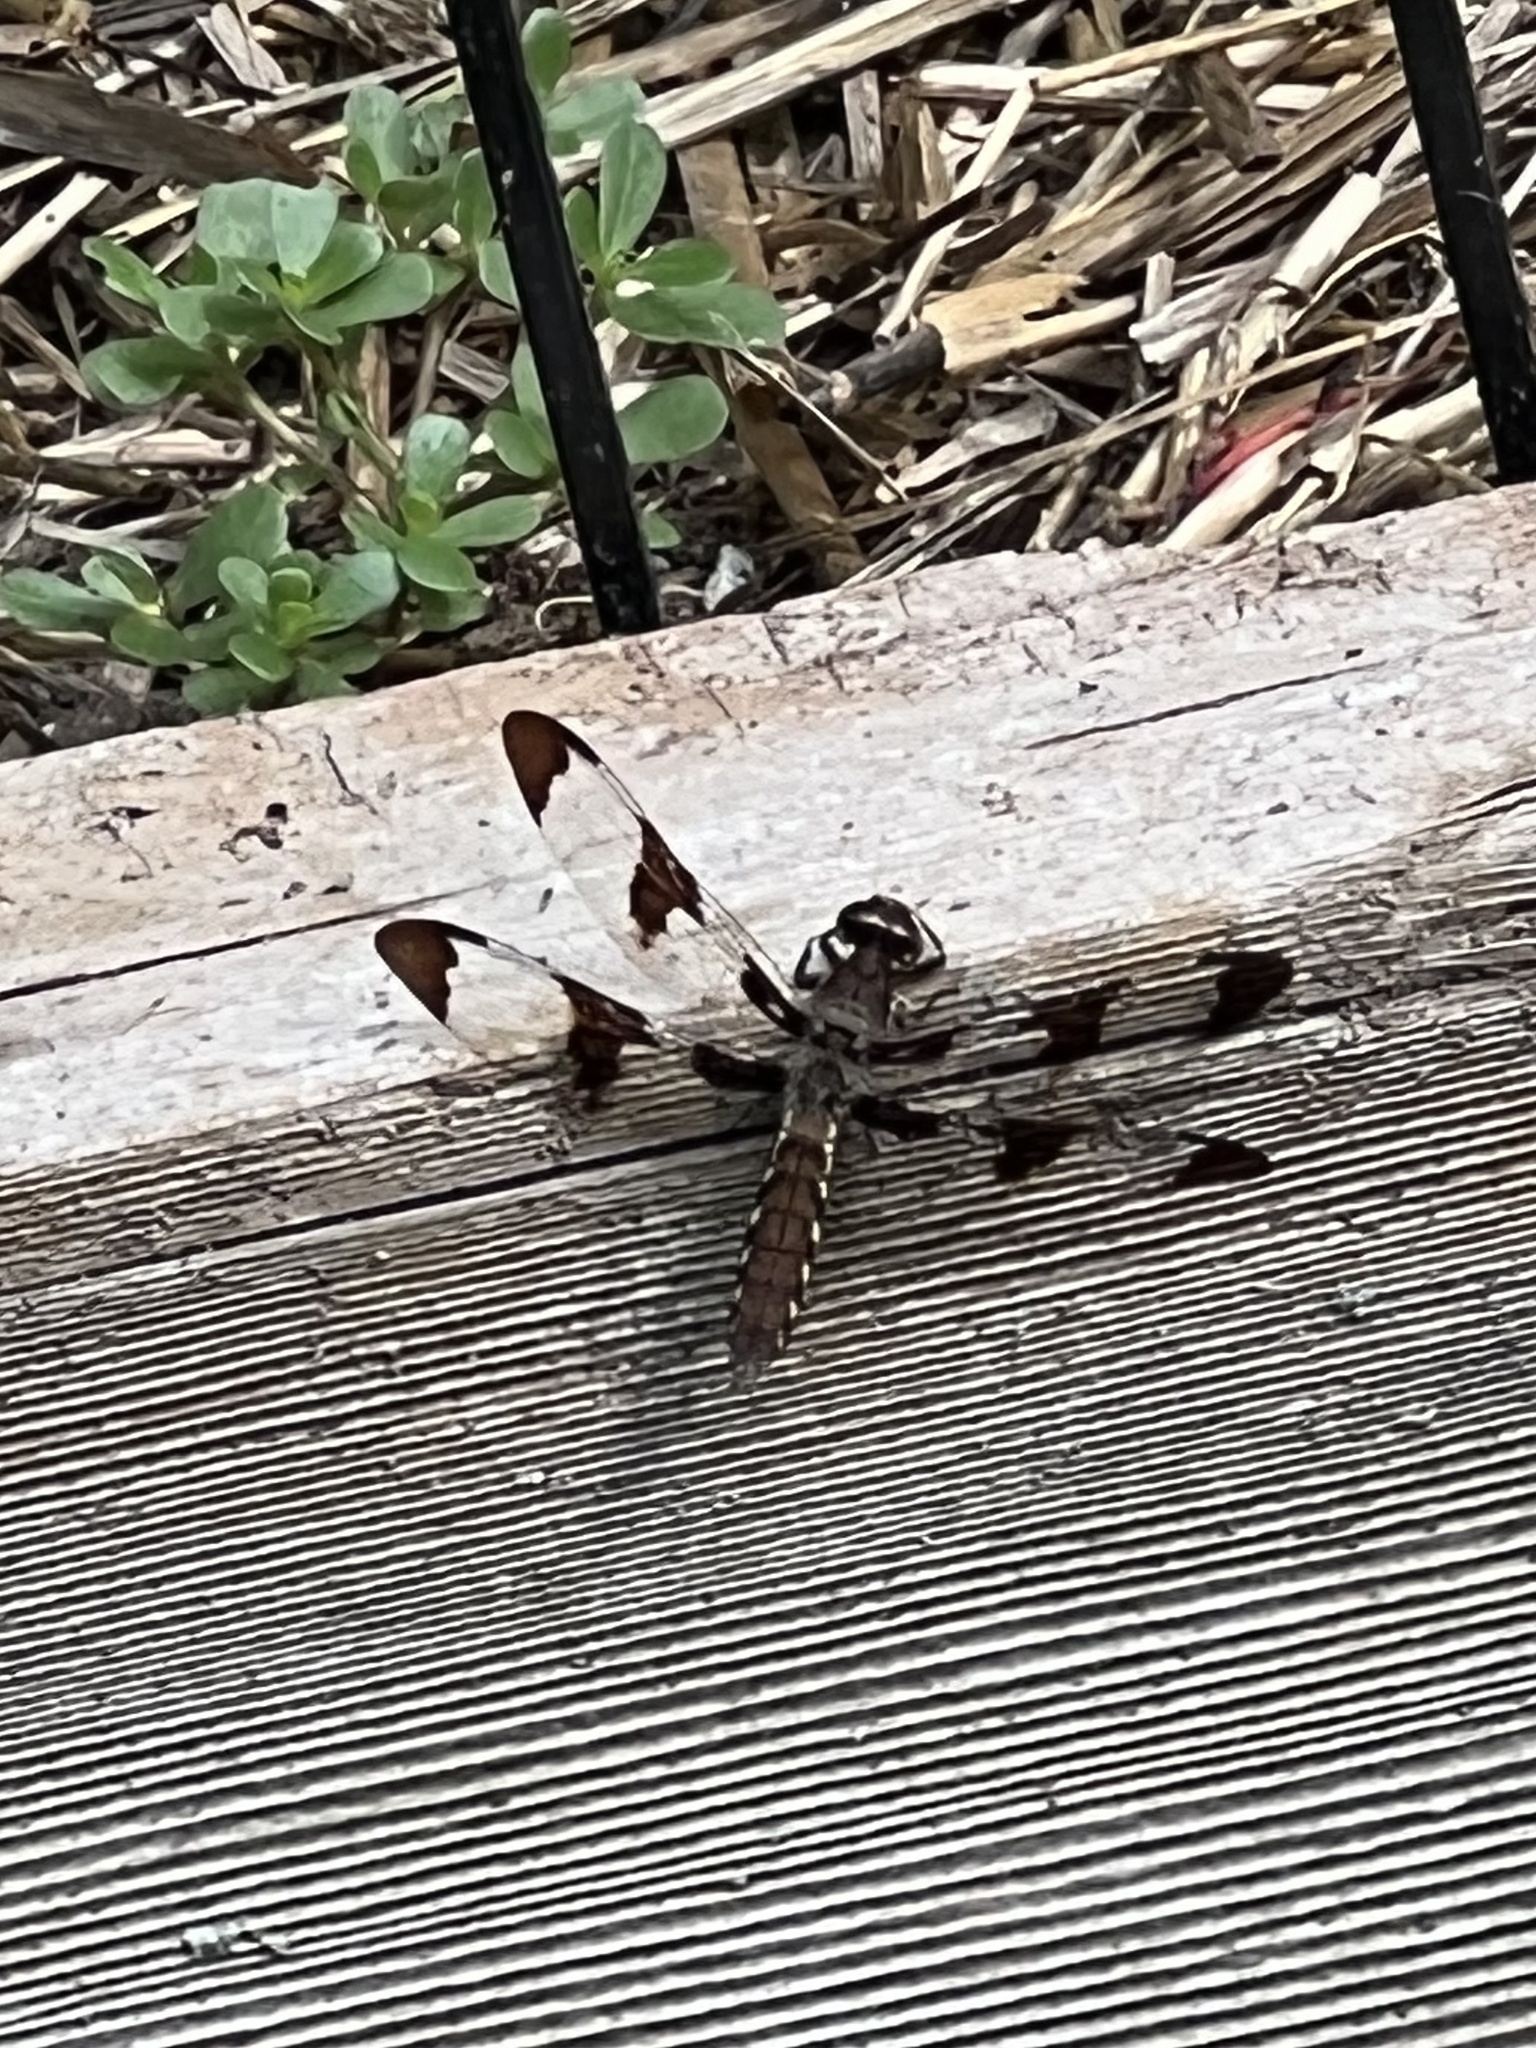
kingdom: Animalia
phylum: Arthropoda
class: Insecta
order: Odonata
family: Libellulidae
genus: Plathemis
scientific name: Plathemis lydia
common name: Common whitetail
